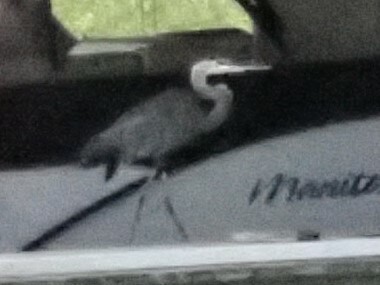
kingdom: Animalia
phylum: Chordata
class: Aves
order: Pelecaniformes
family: Ardeidae
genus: Ardea
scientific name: Ardea herodias
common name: Great blue heron
